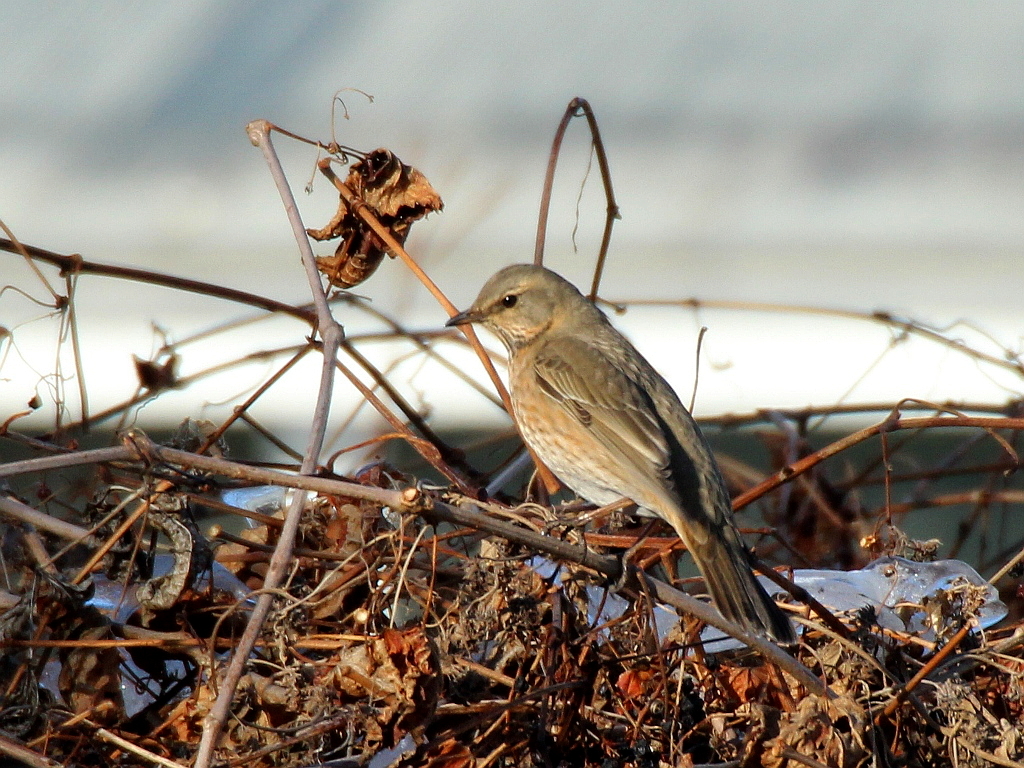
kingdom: Animalia
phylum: Chordata
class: Aves
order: Passeriformes
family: Turdidae
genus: Turdus
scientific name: Turdus naumanni
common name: Naumann's thrush
